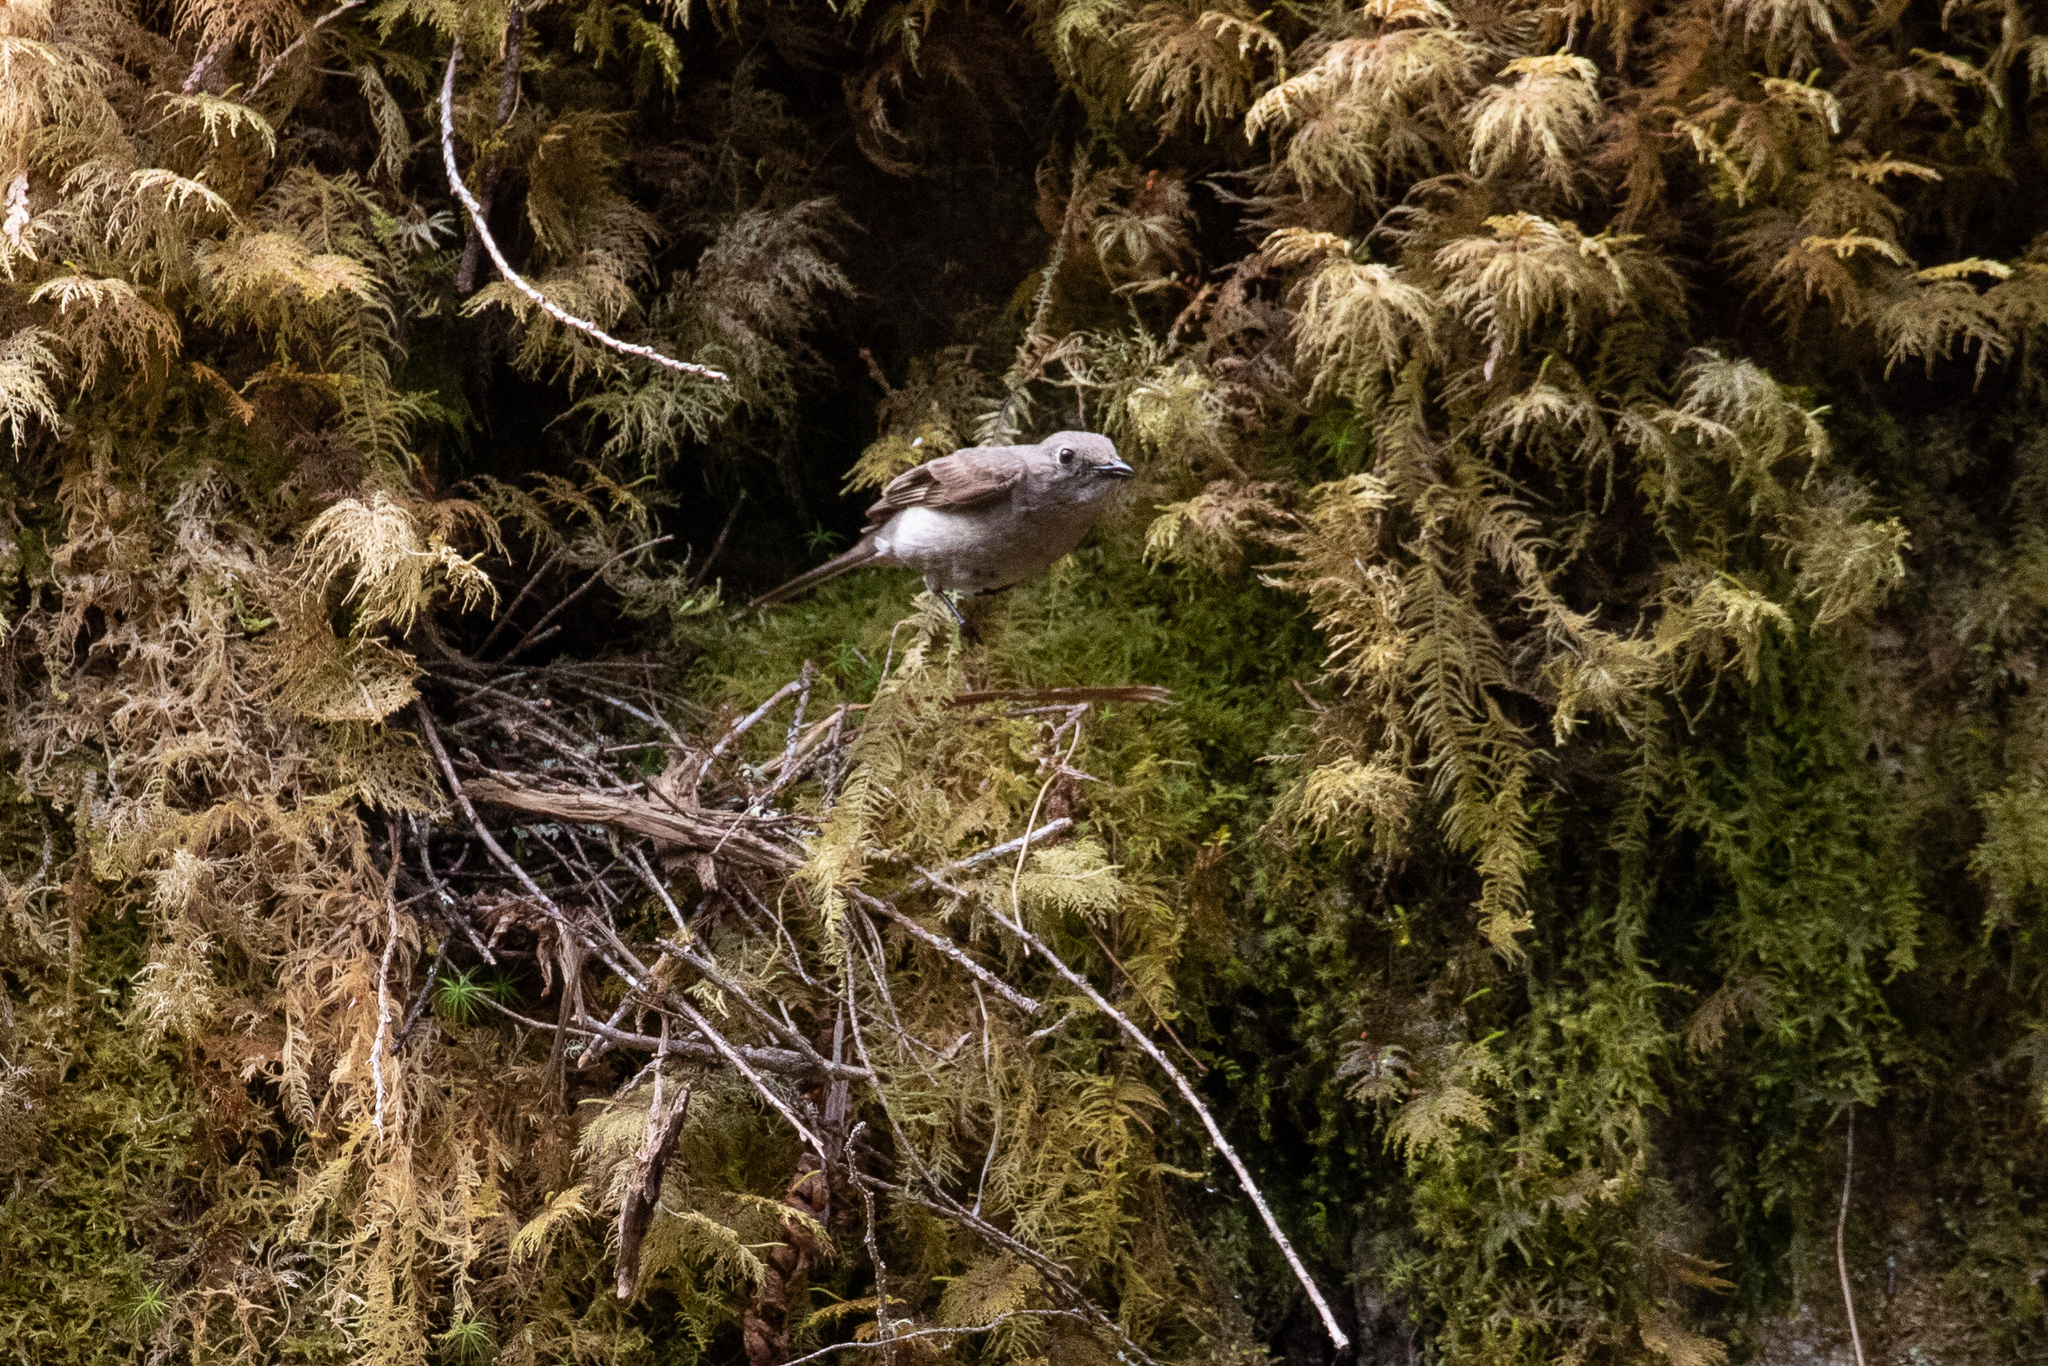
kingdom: Animalia
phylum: Chordata
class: Aves
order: Passeriformes
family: Turdidae
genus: Myadestes
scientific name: Myadestes townsendi
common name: Townsend's solitaire
